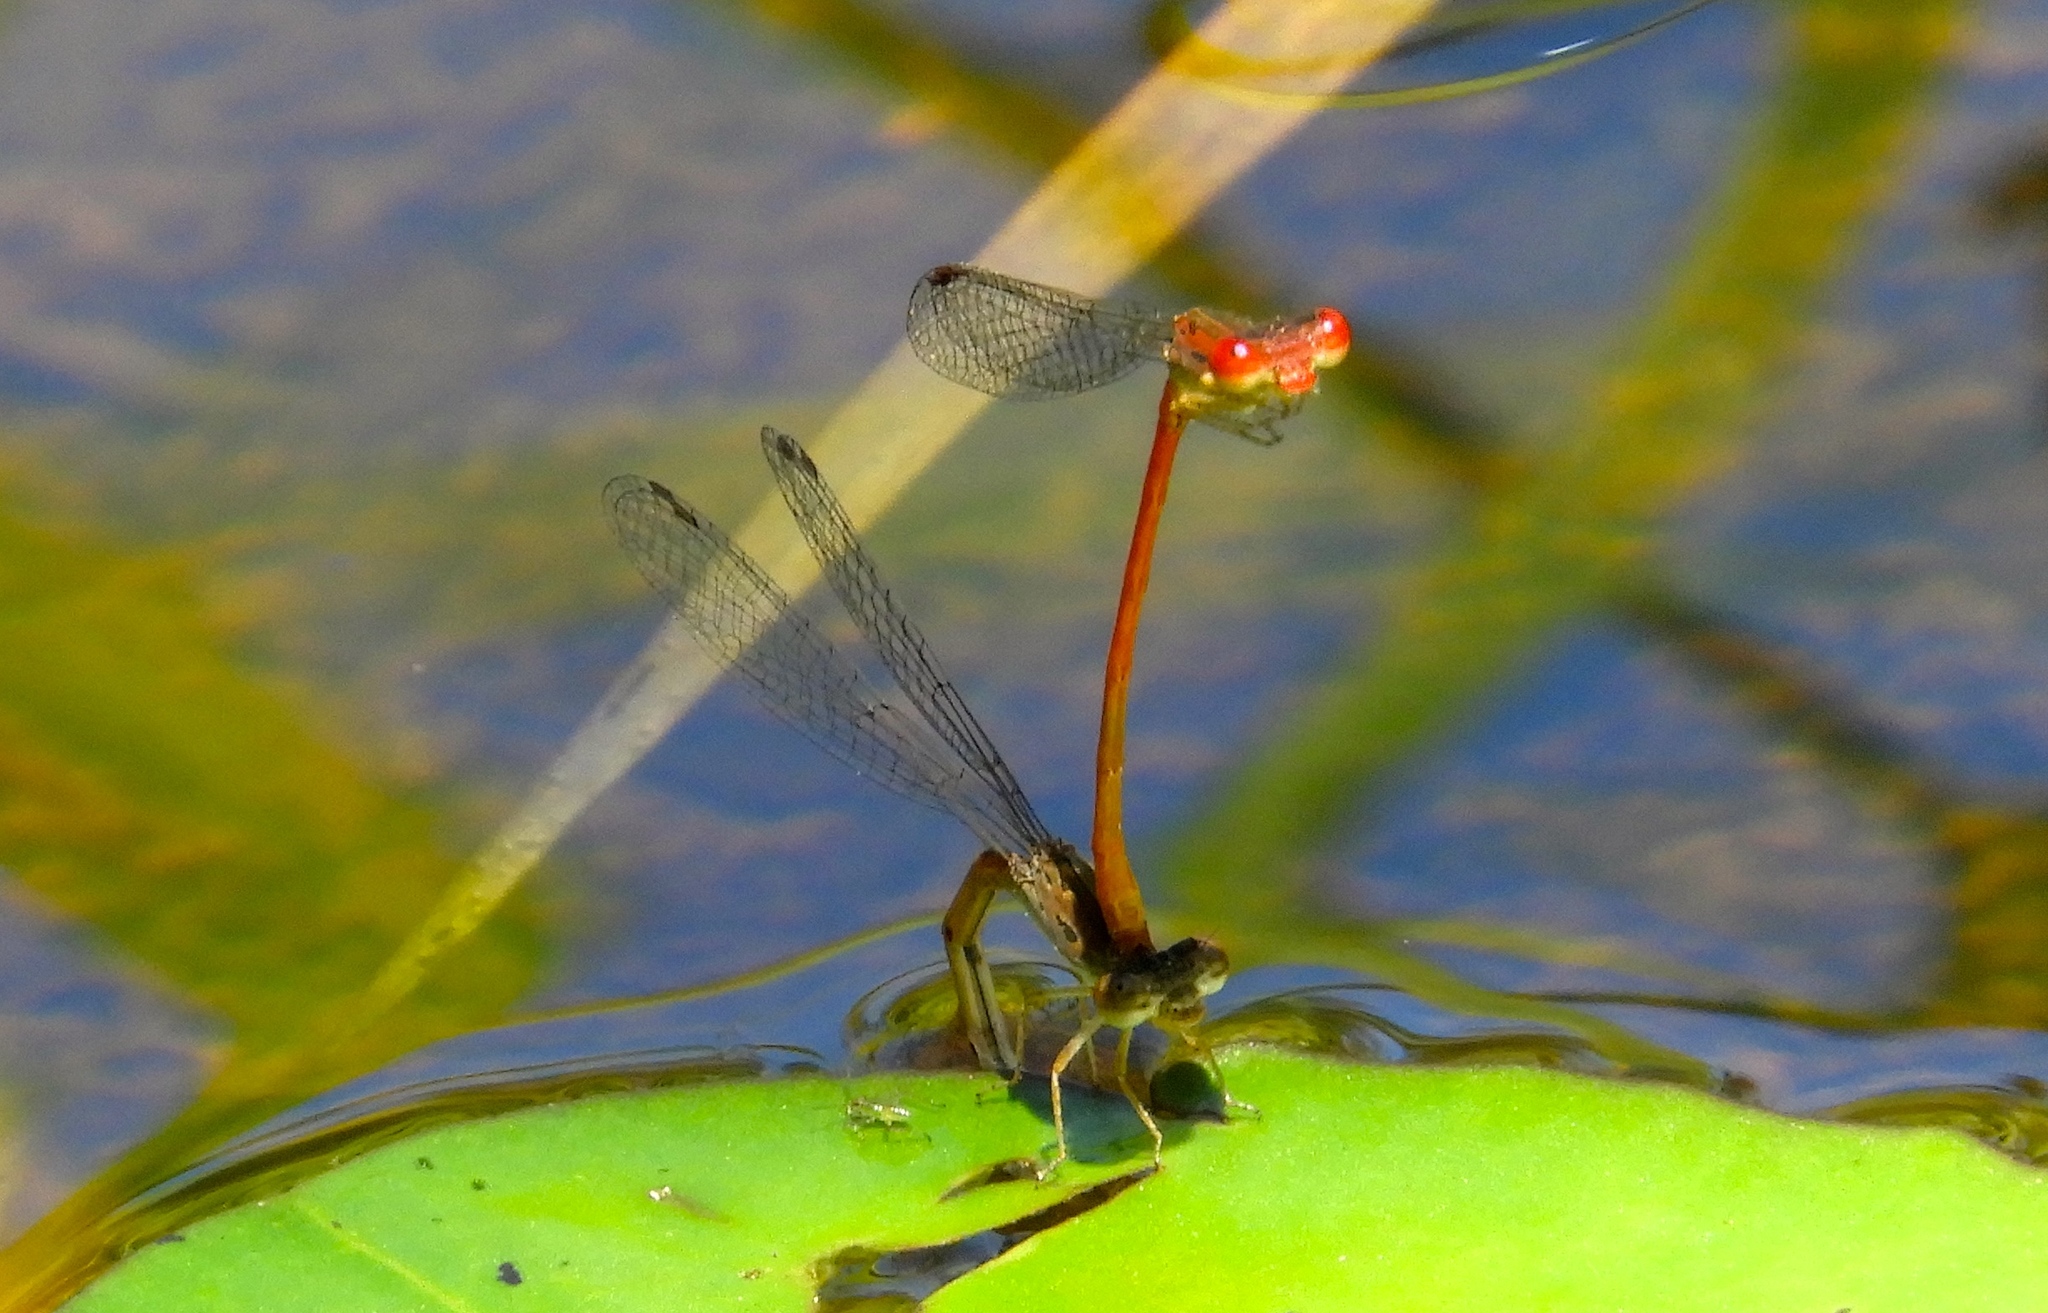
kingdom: Animalia
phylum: Arthropoda
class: Insecta
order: Odonata
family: Coenagrionidae
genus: Telebasis
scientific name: Telebasis salva
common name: Desert firetail
